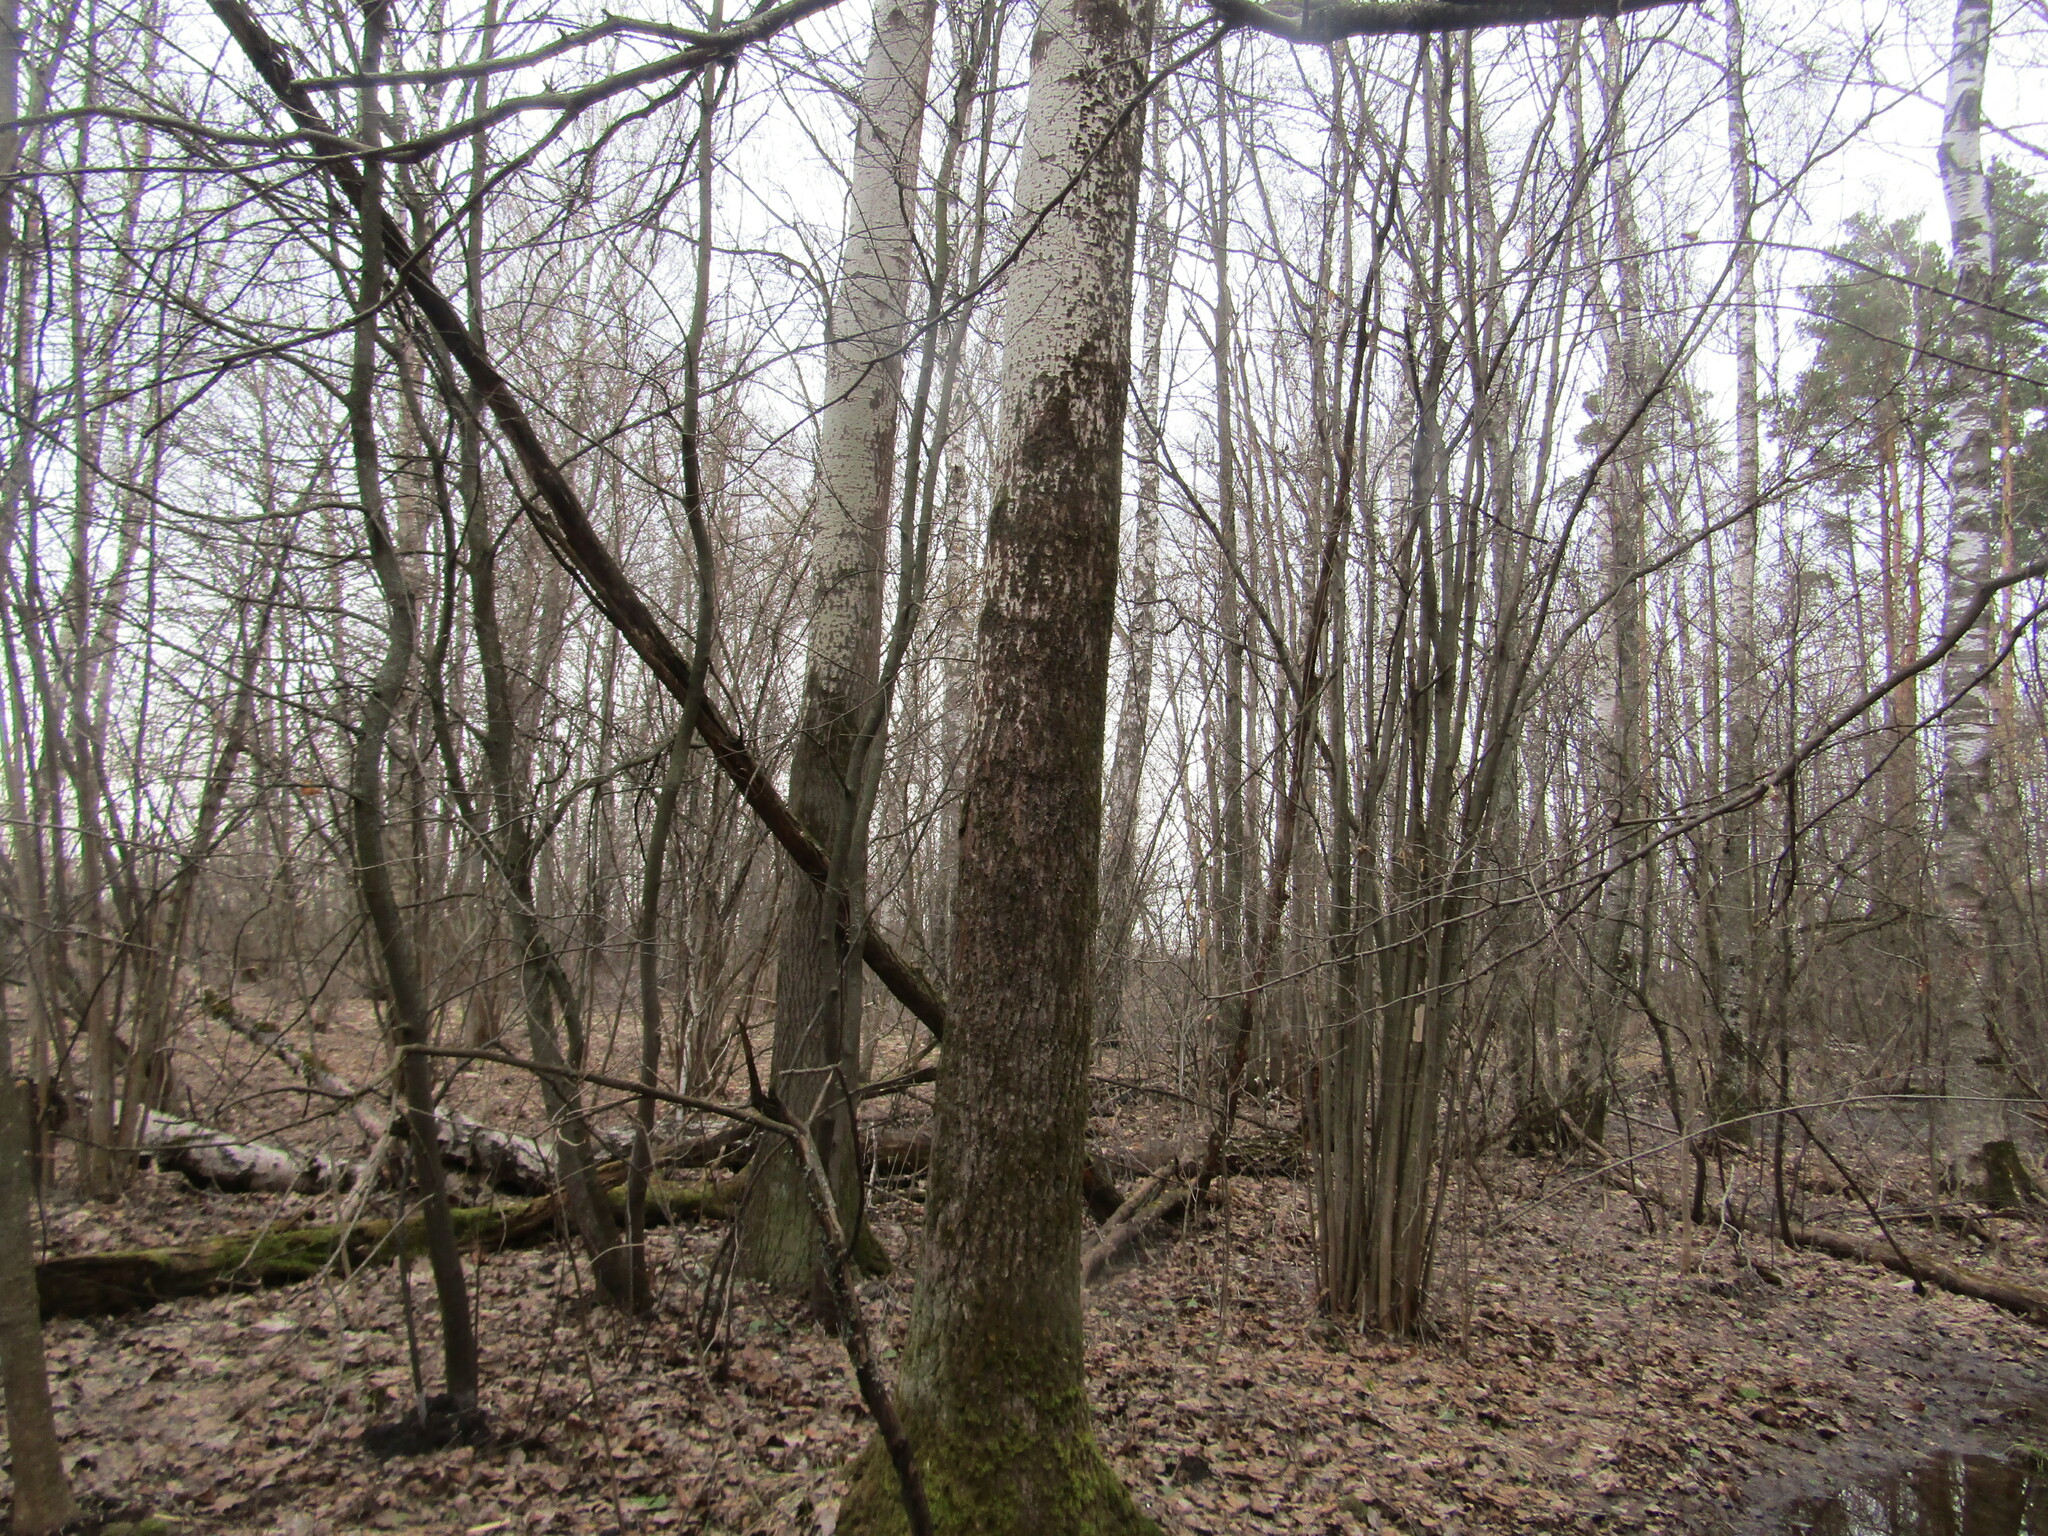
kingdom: Plantae
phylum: Tracheophyta
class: Magnoliopsida
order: Malpighiales
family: Salicaceae
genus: Populus
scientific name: Populus tremula
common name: European aspen
